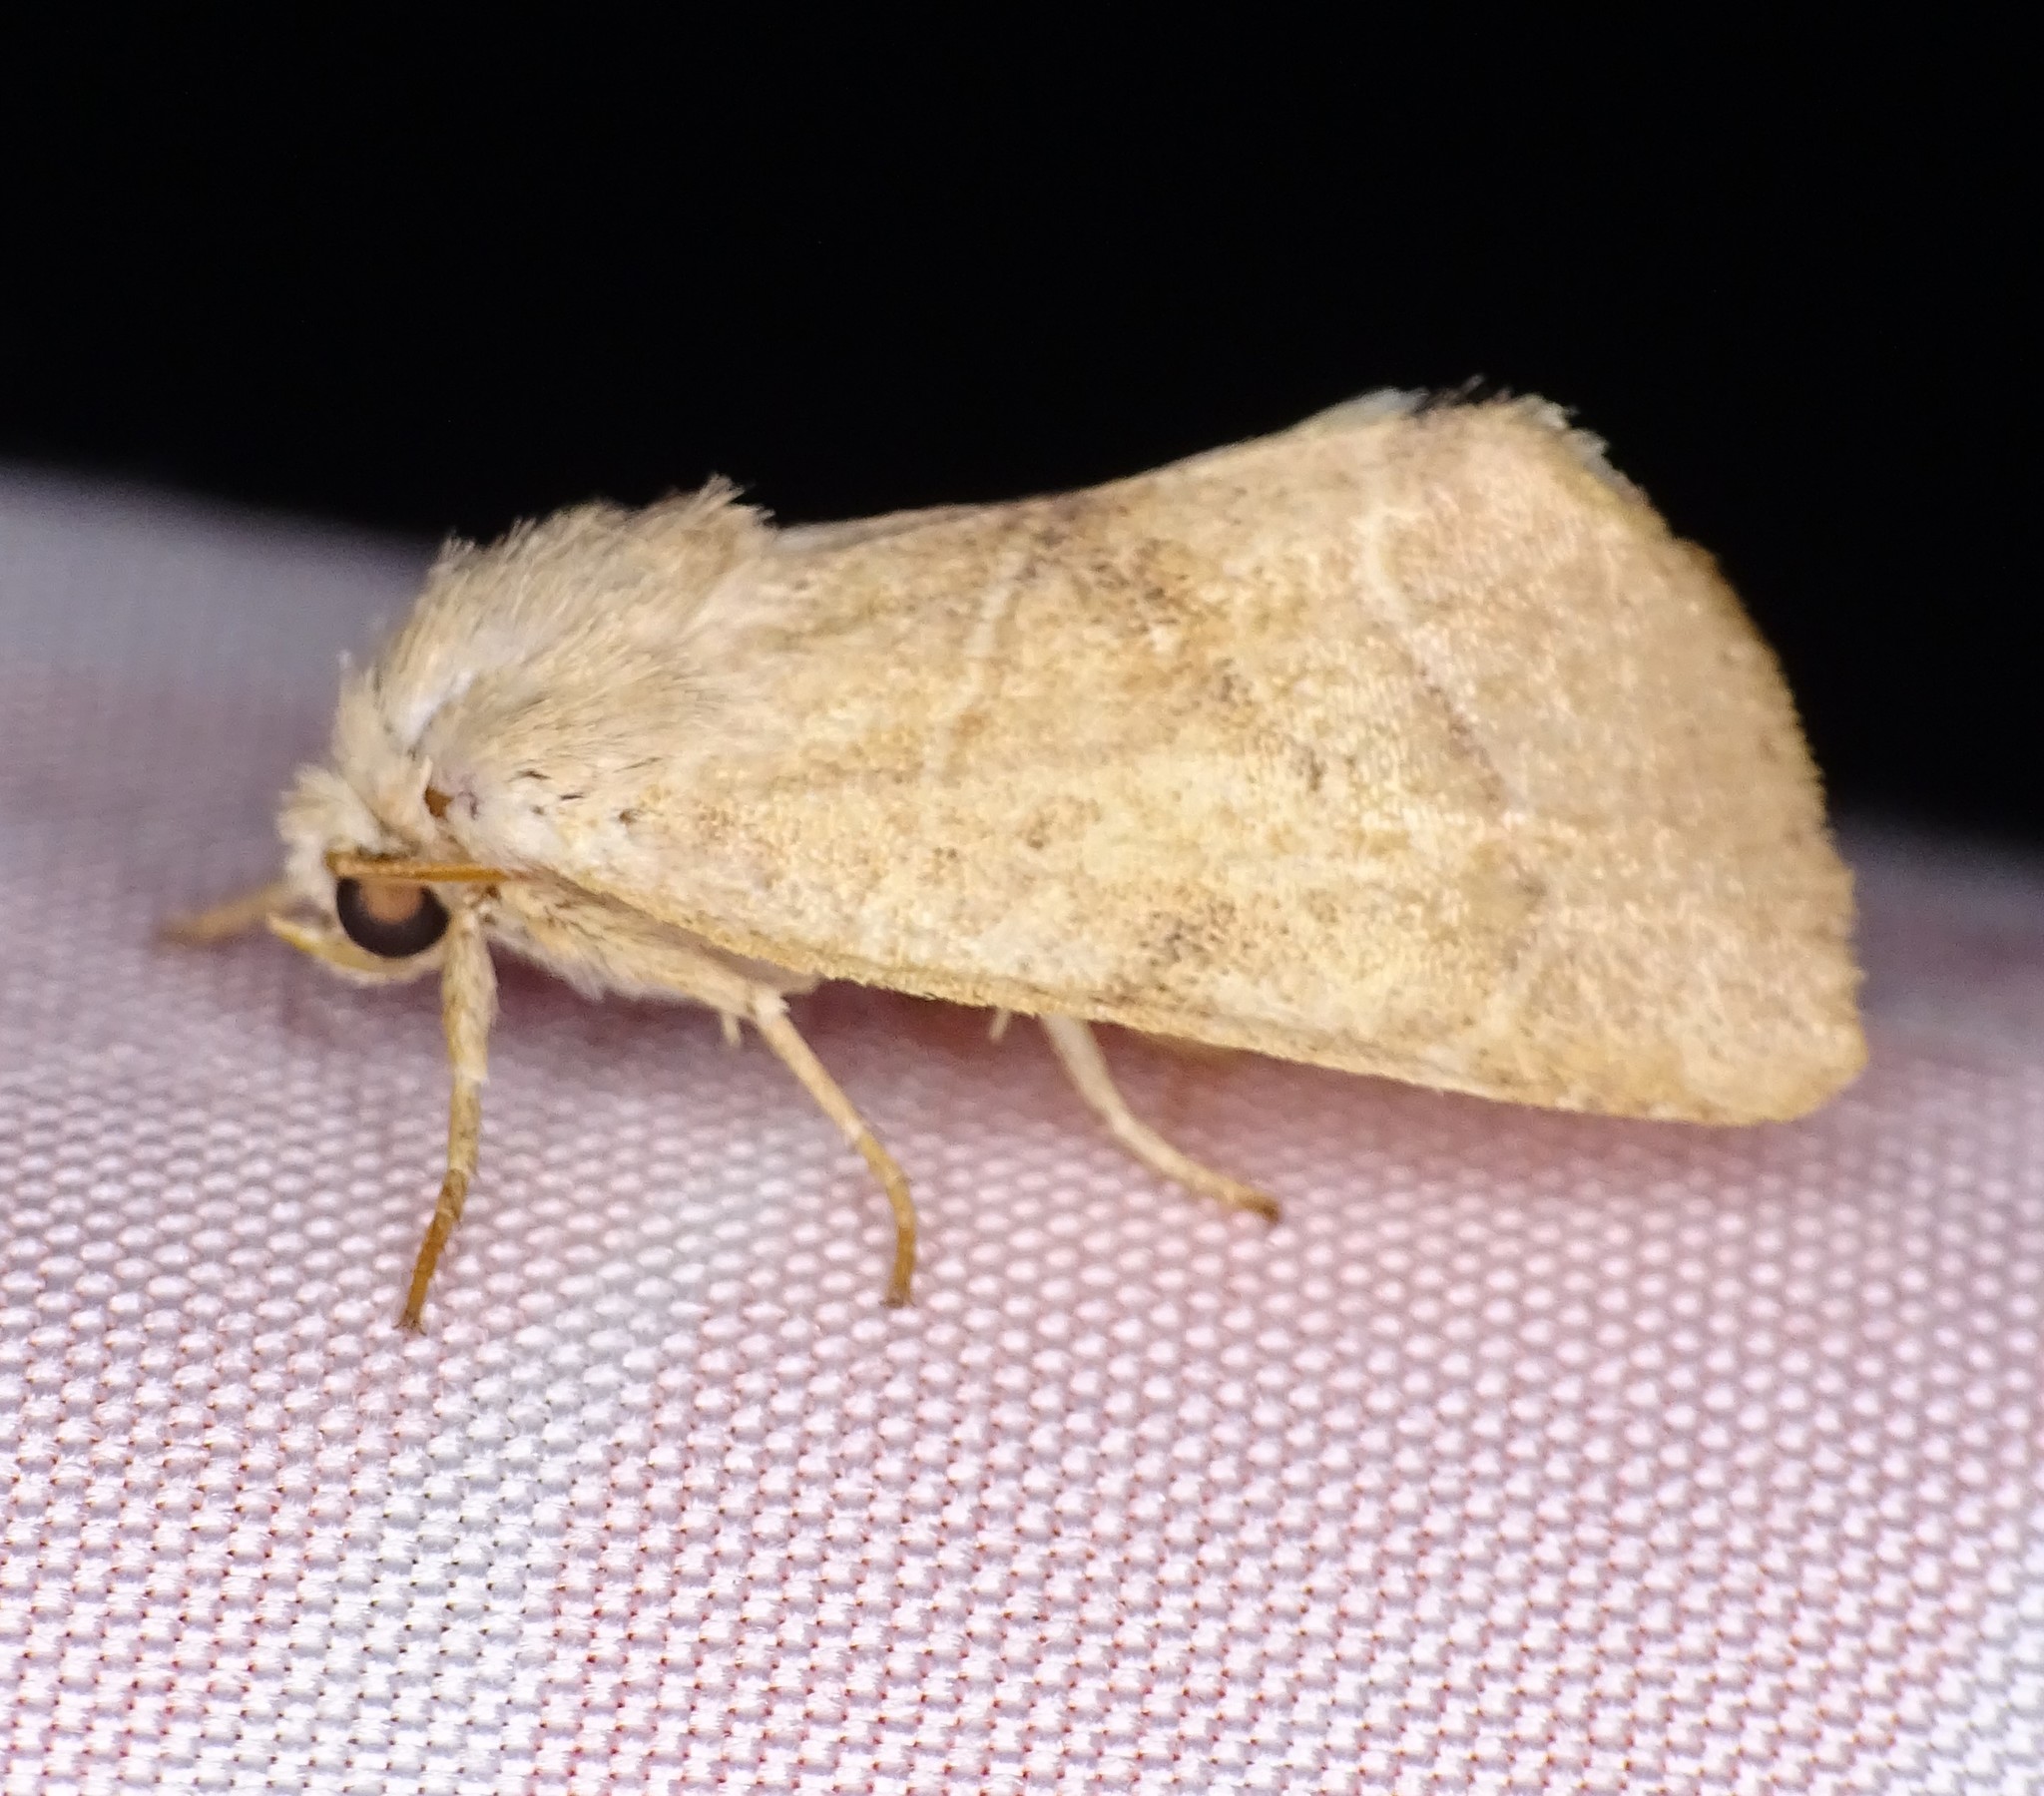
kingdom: Animalia
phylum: Arthropoda
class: Insecta
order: Lepidoptera
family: Noctuidae
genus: Cosmia
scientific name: Cosmia calami
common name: American dun-bar moth
